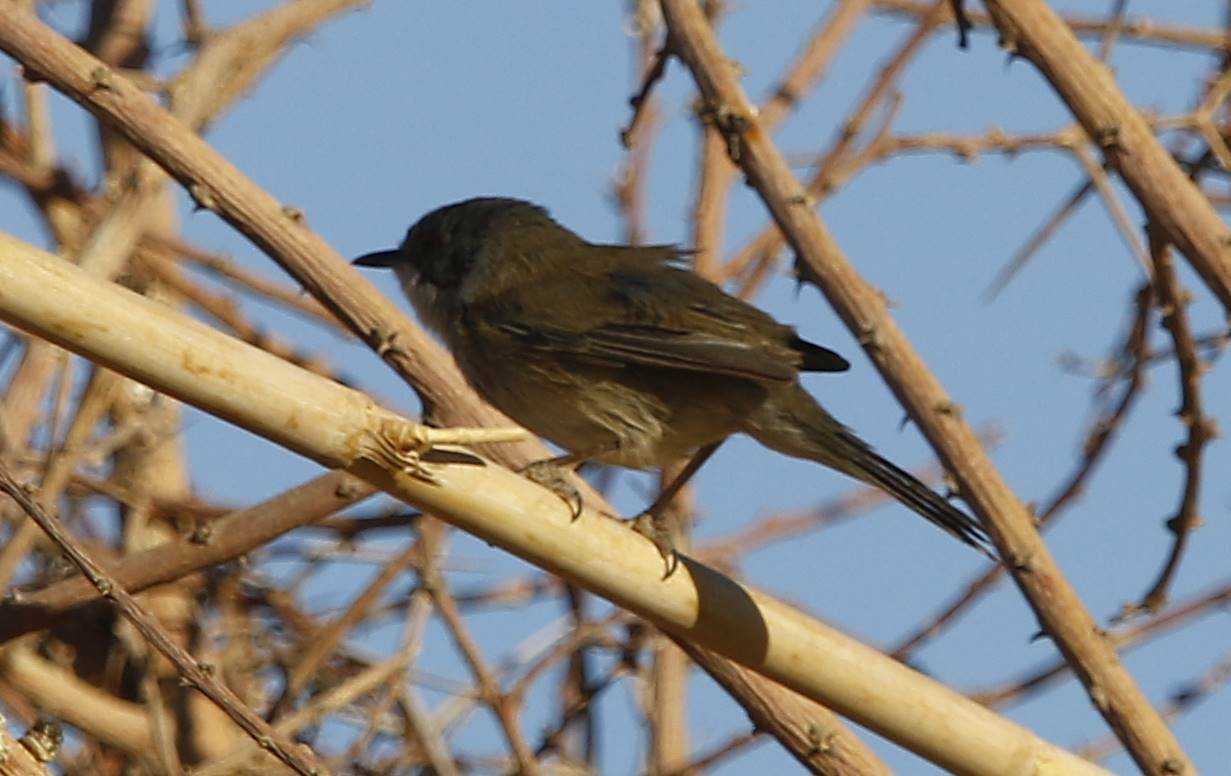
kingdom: Animalia
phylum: Chordata
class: Aves
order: Passeriformes
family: Sylviidae
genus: Curruca
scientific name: Curruca melanocephala
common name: Sardinian warbler
